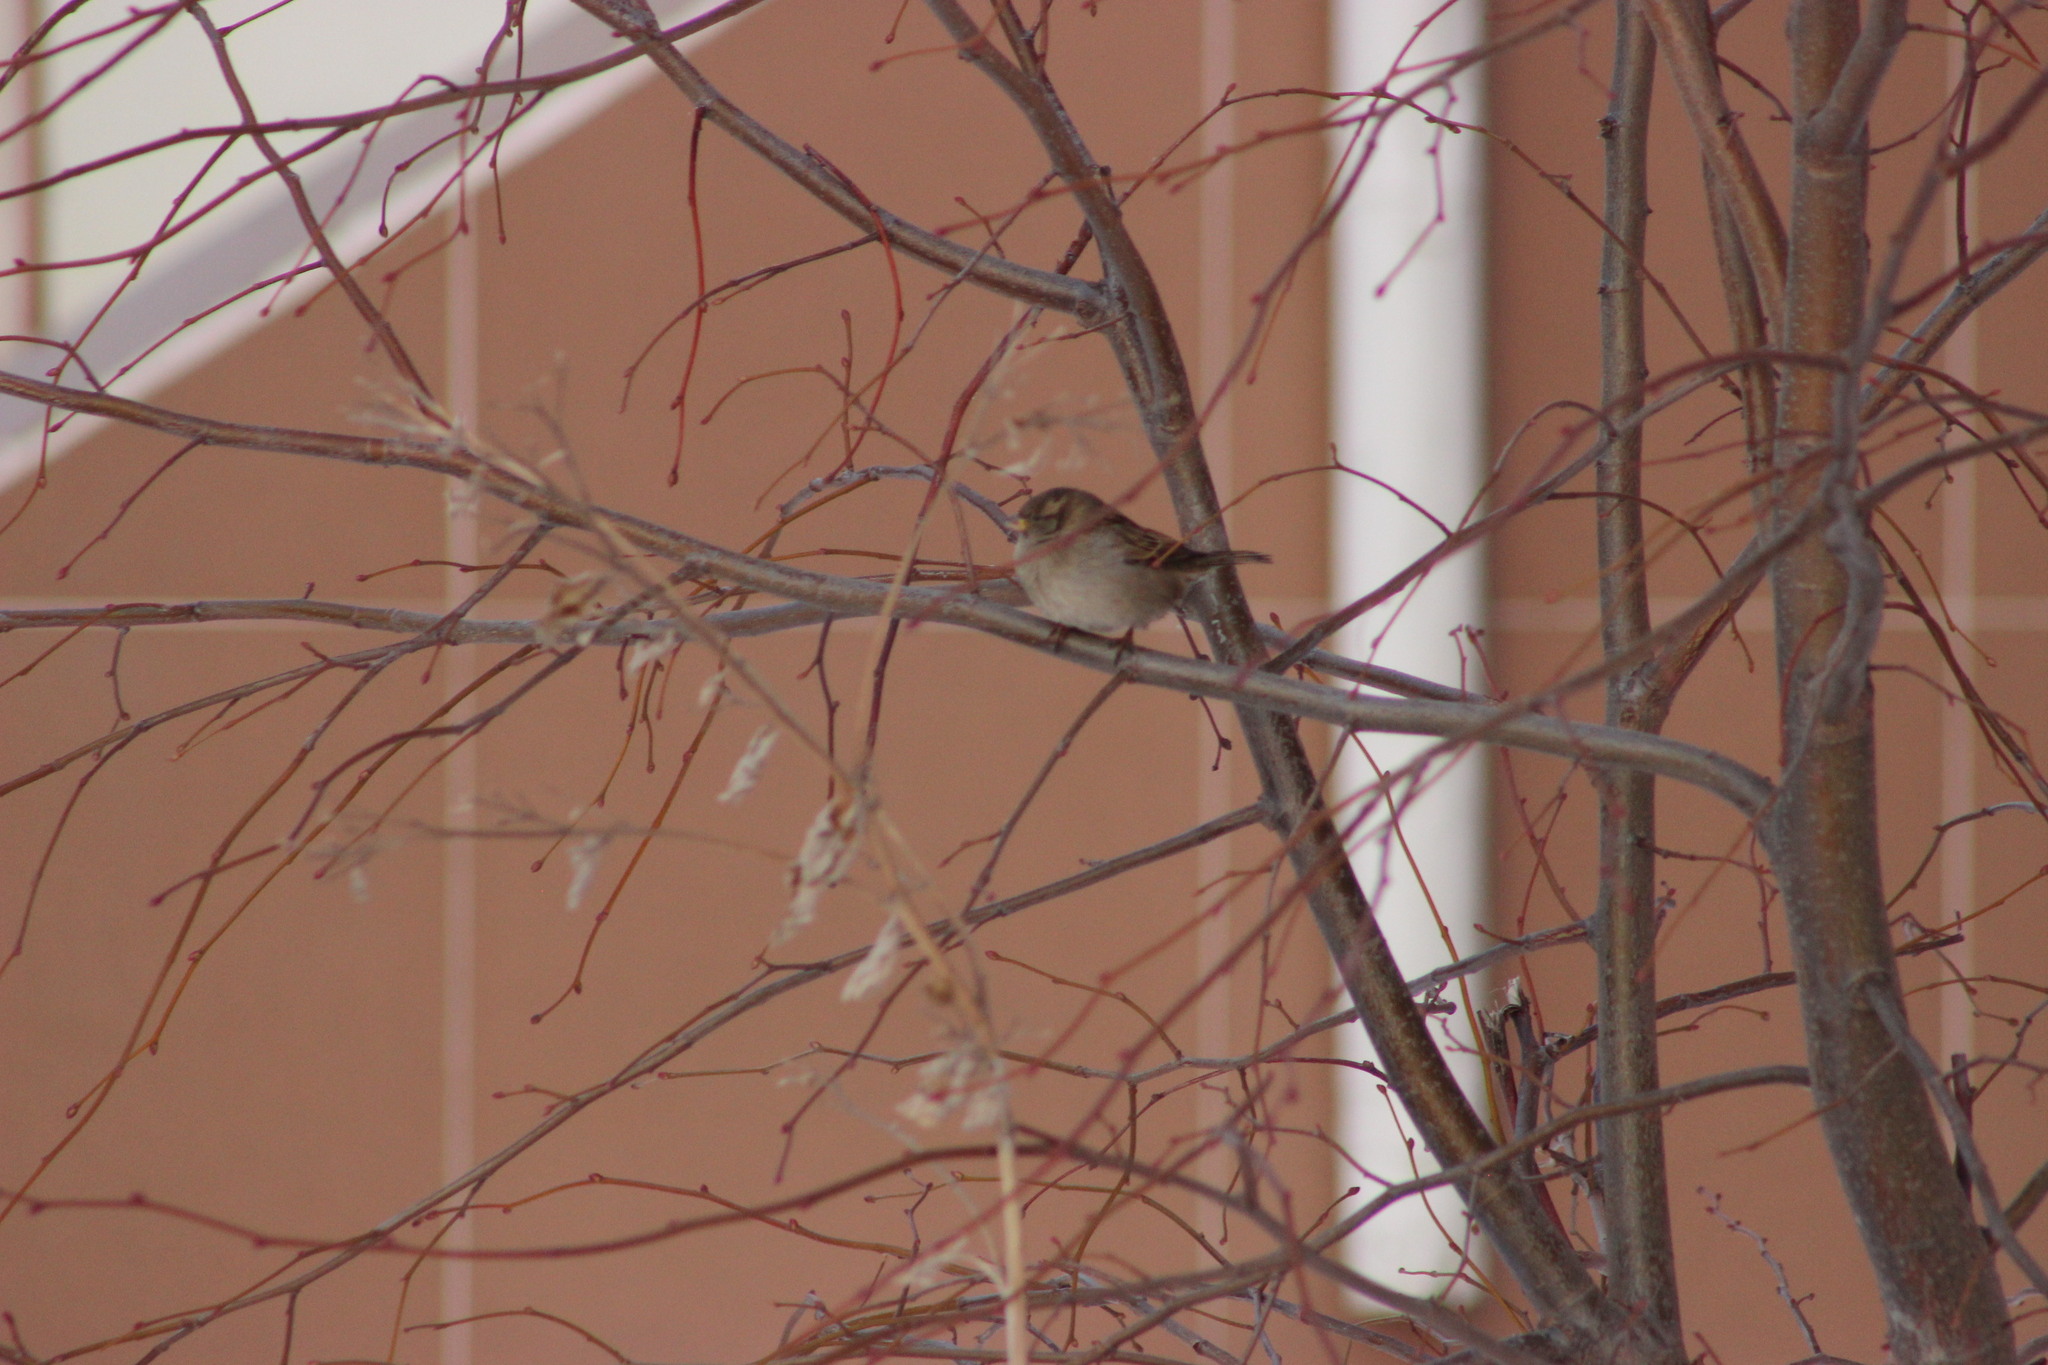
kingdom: Animalia
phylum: Chordata
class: Aves
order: Passeriformes
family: Passeridae
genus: Passer
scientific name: Passer domesticus
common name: House sparrow
